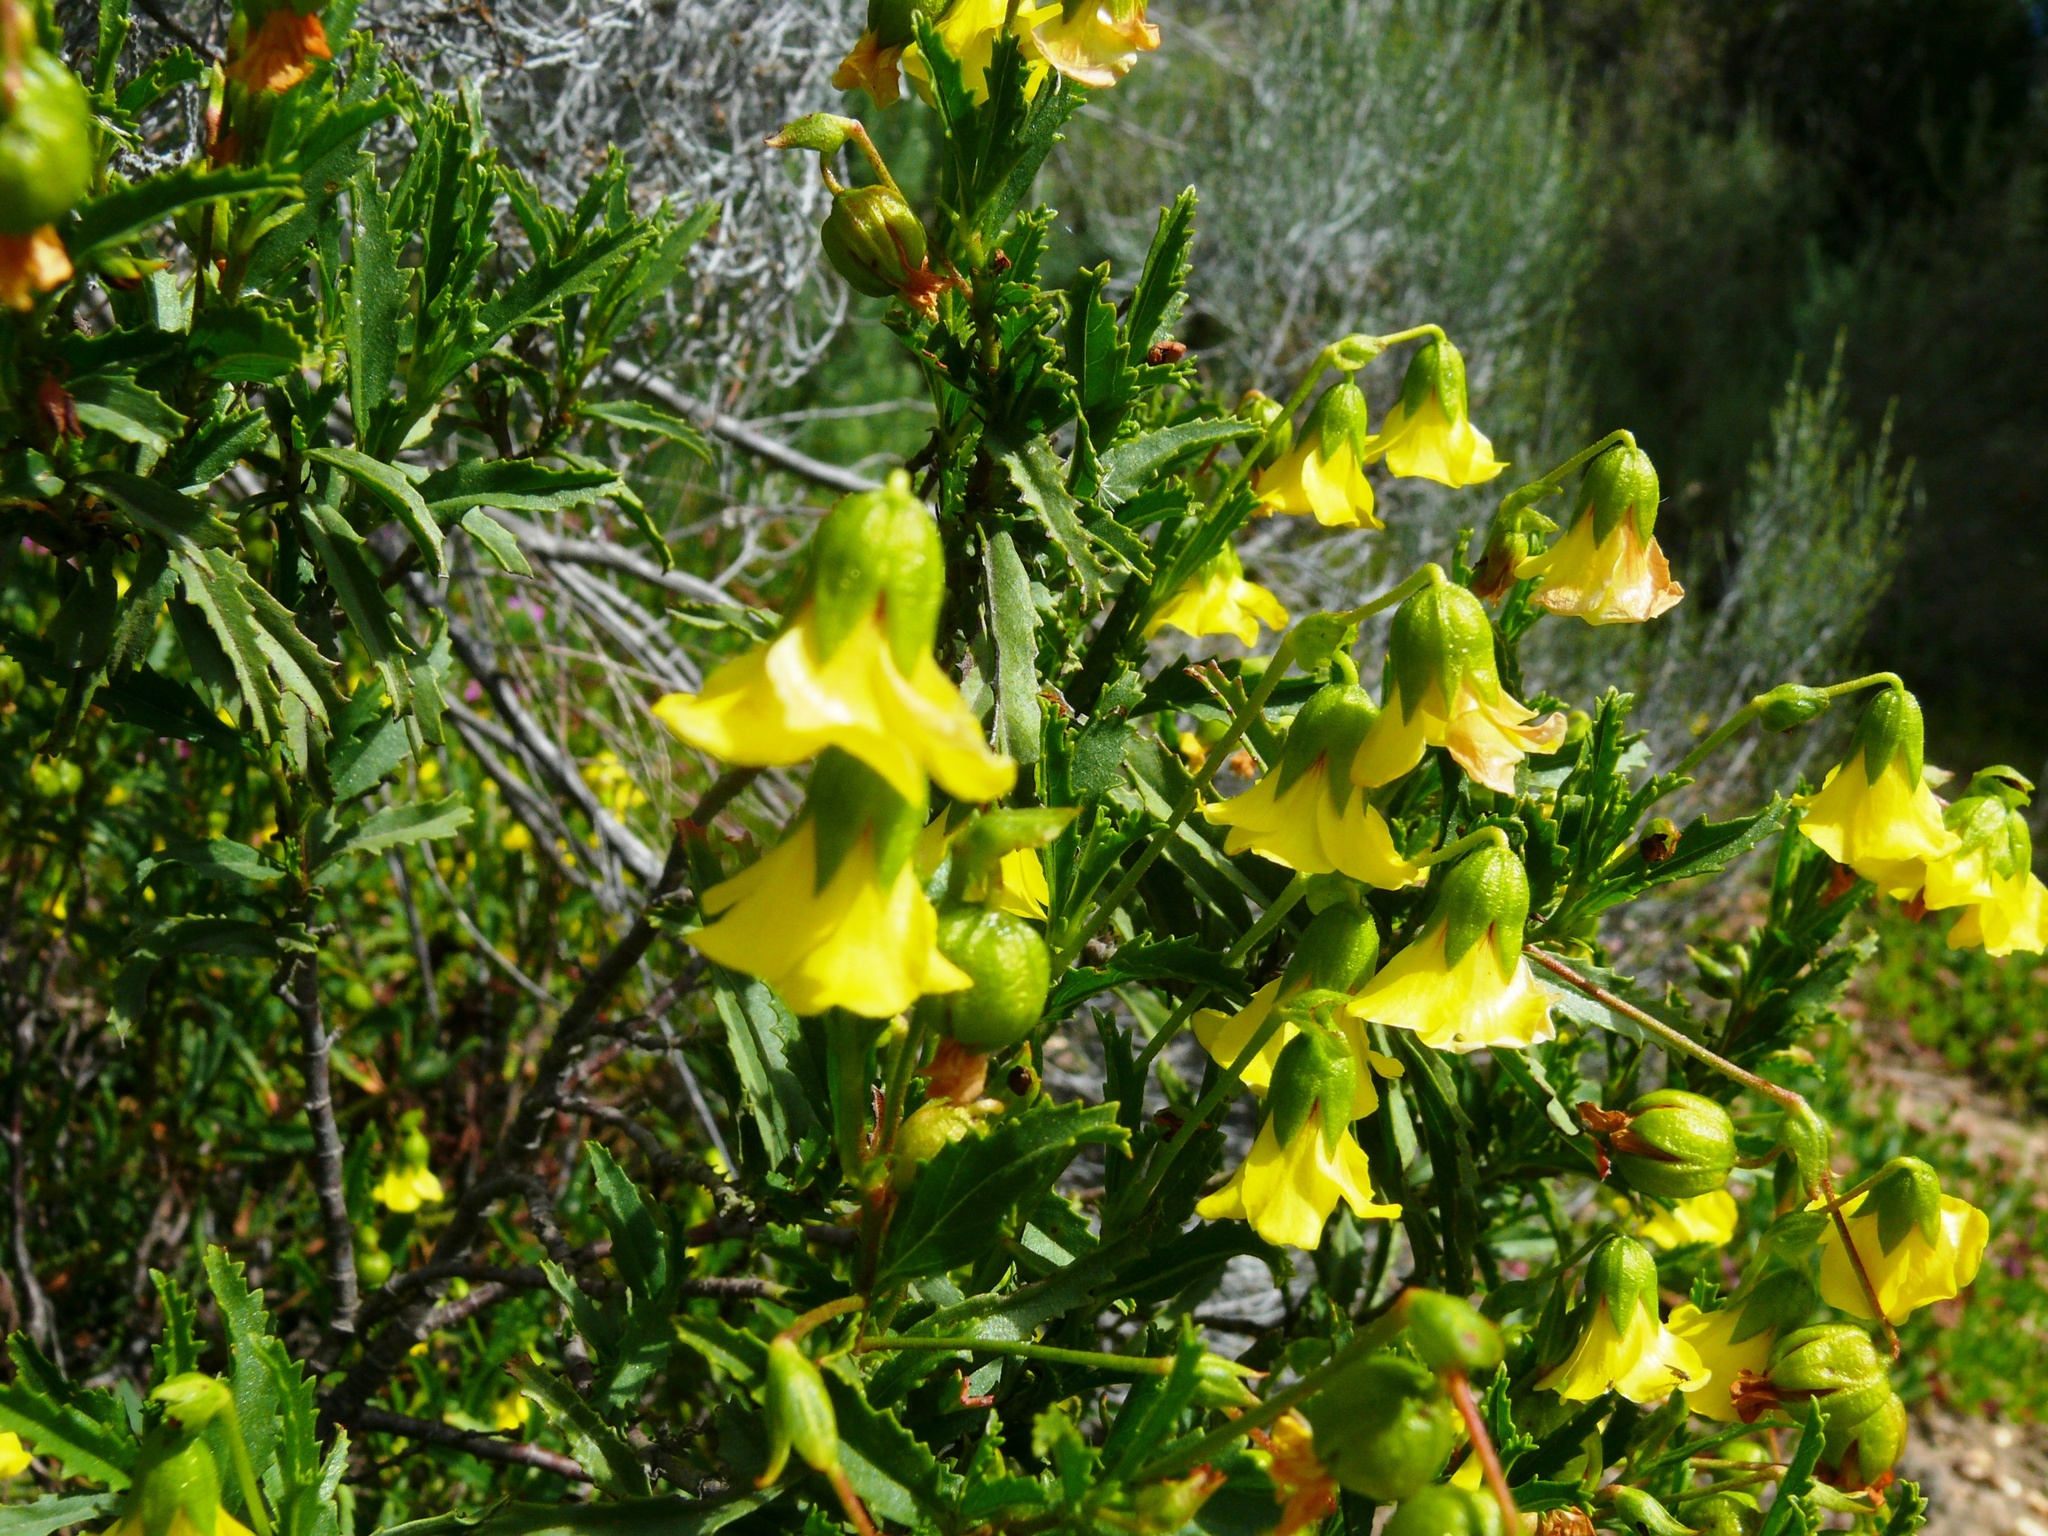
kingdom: Plantae
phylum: Tracheophyta
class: Magnoliopsida
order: Malvales
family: Malvaceae
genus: Hermannia
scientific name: Hermannia saccifera
